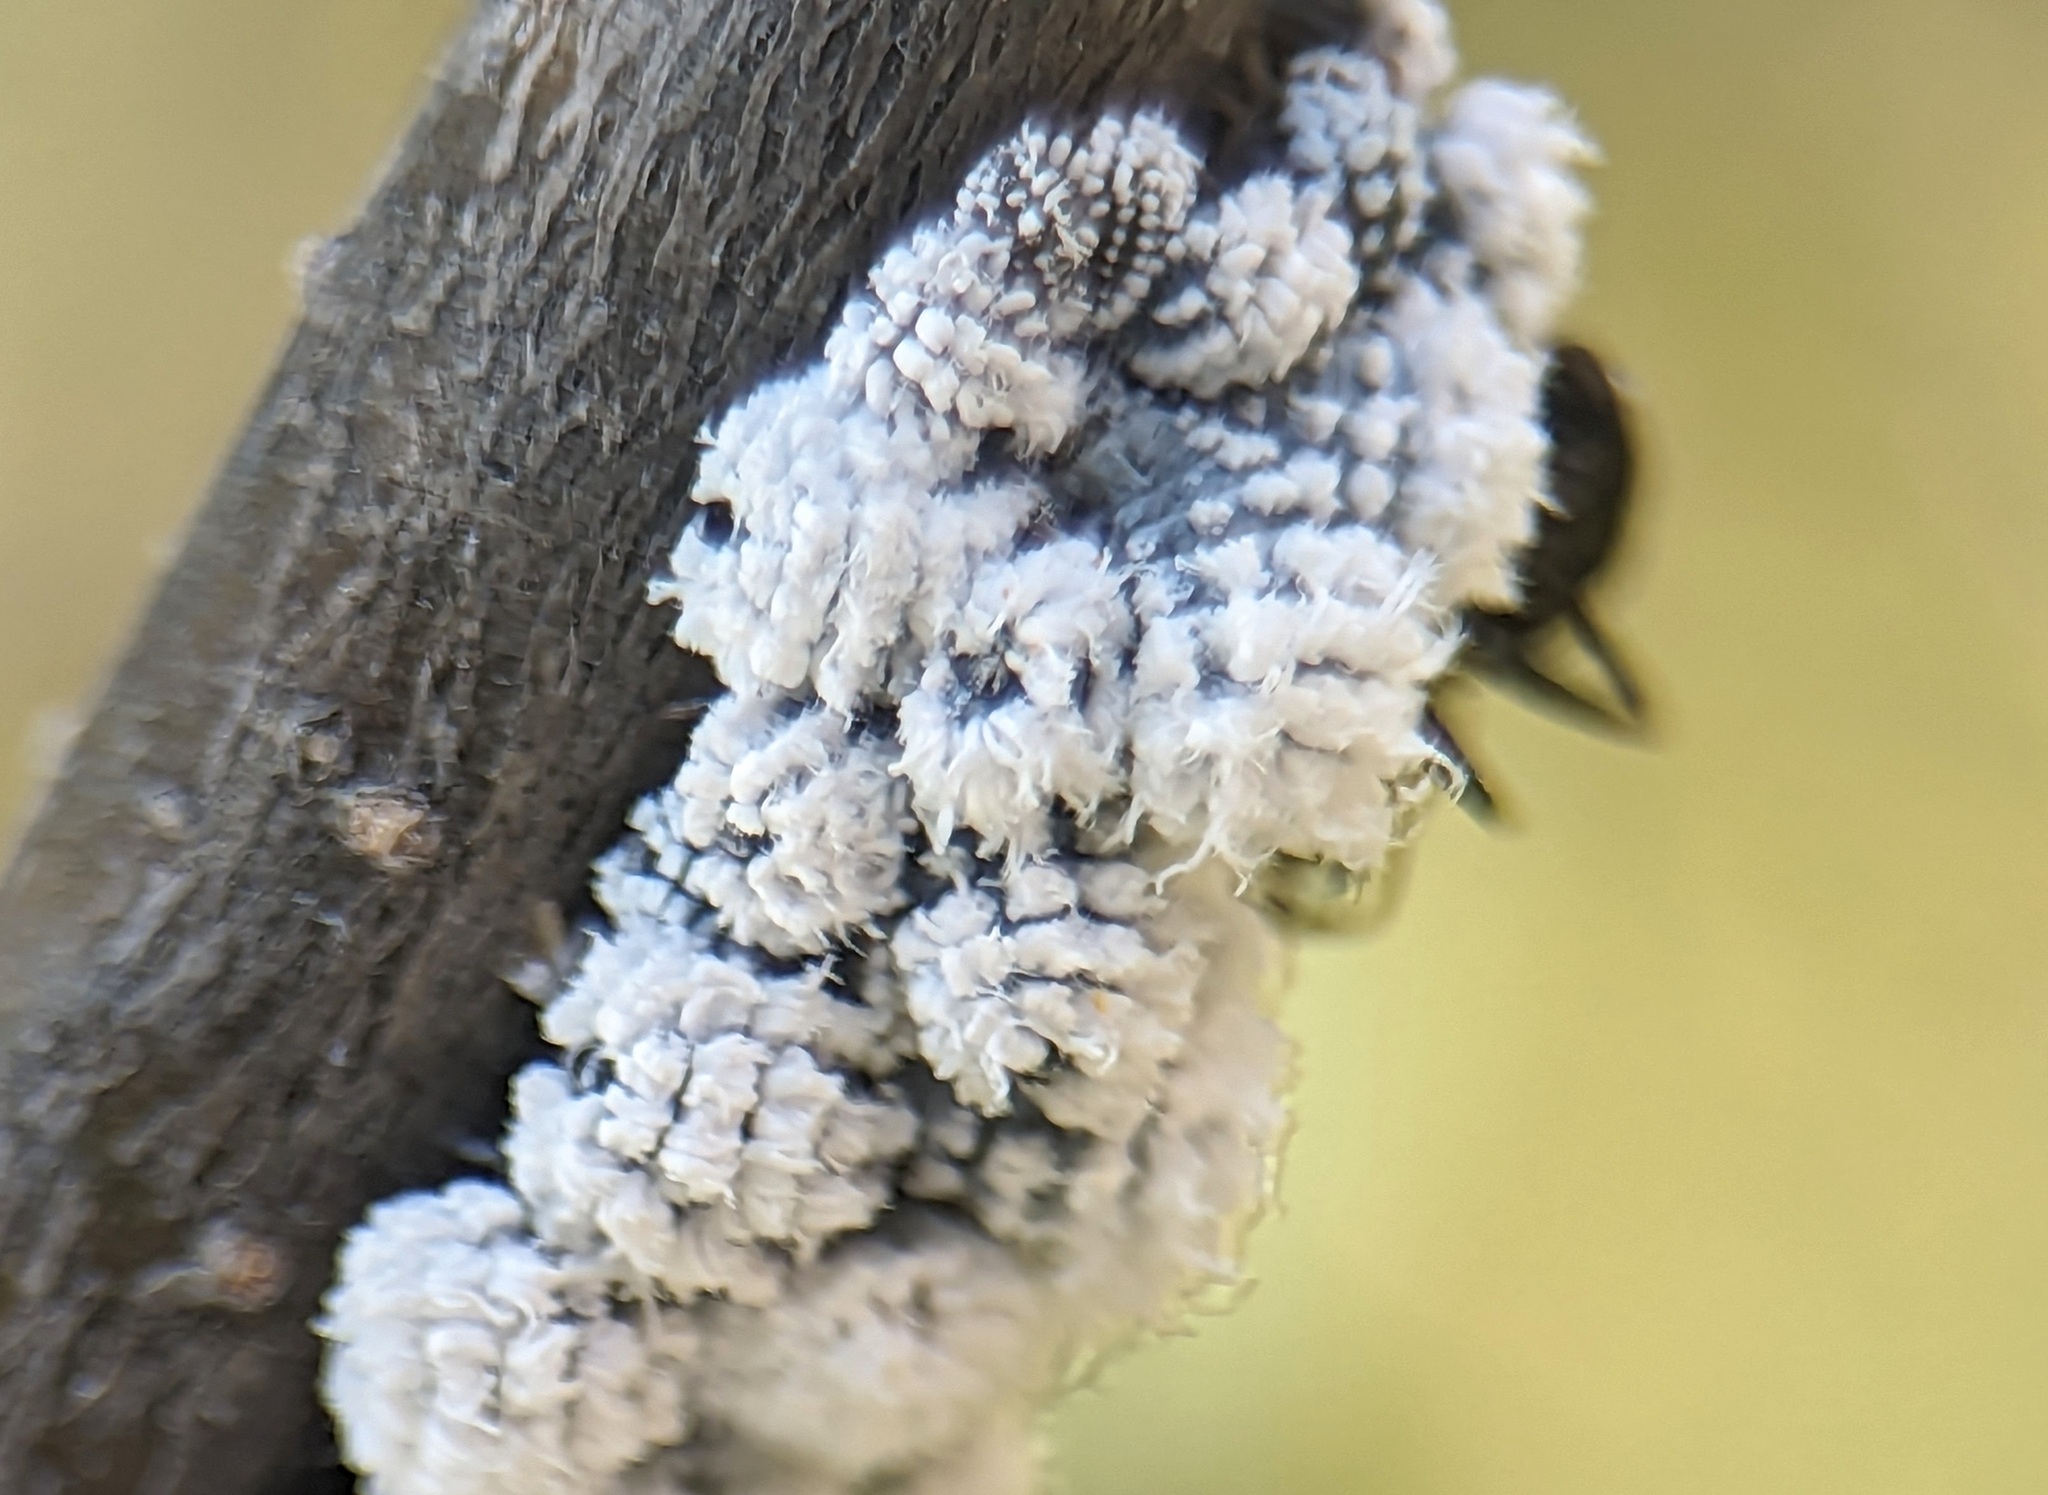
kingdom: Animalia
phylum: Arthropoda
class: Insecta
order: Hemiptera
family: Aphididae
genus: Prociphilus
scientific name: Prociphilus tessellatus
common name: Woolly alder aphid
